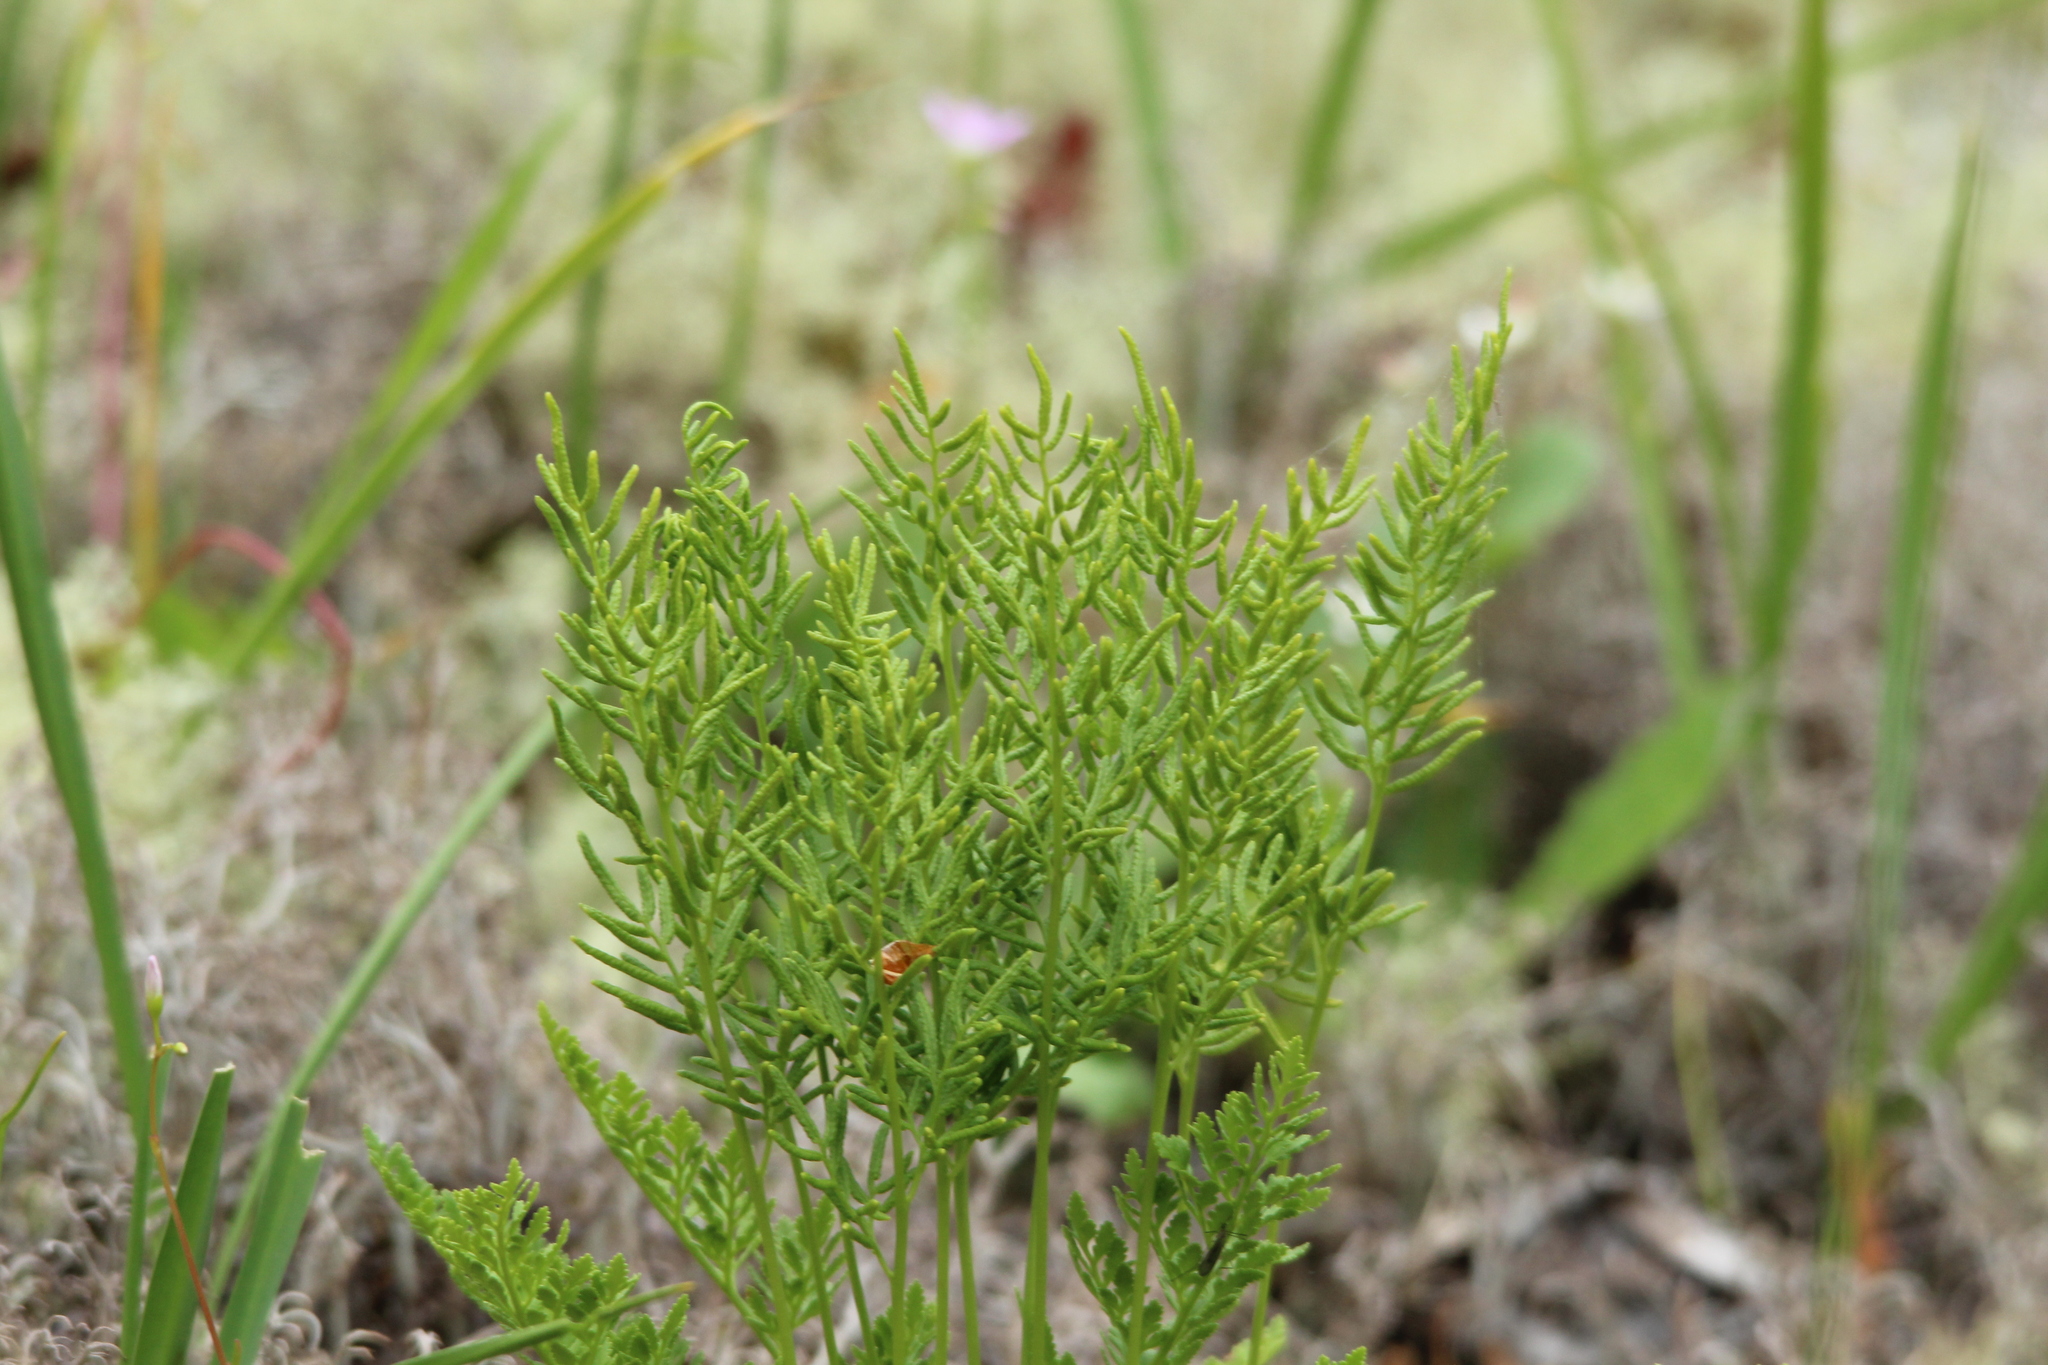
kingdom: Plantae
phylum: Tracheophyta
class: Polypodiopsida
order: Polypodiales
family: Pteridaceae
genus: Cryptogramma
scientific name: Cryptogramma acrostichoides
